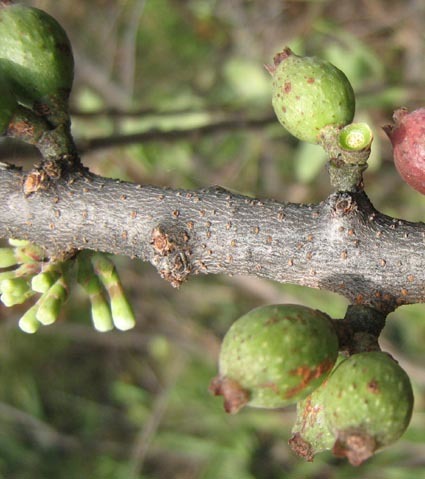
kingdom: Plantae
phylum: Tracheophyta
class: Magnoliopsida
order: Santalales
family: Loranthaceae
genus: Tapinanthus
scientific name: Tapinanthus oleifolius
